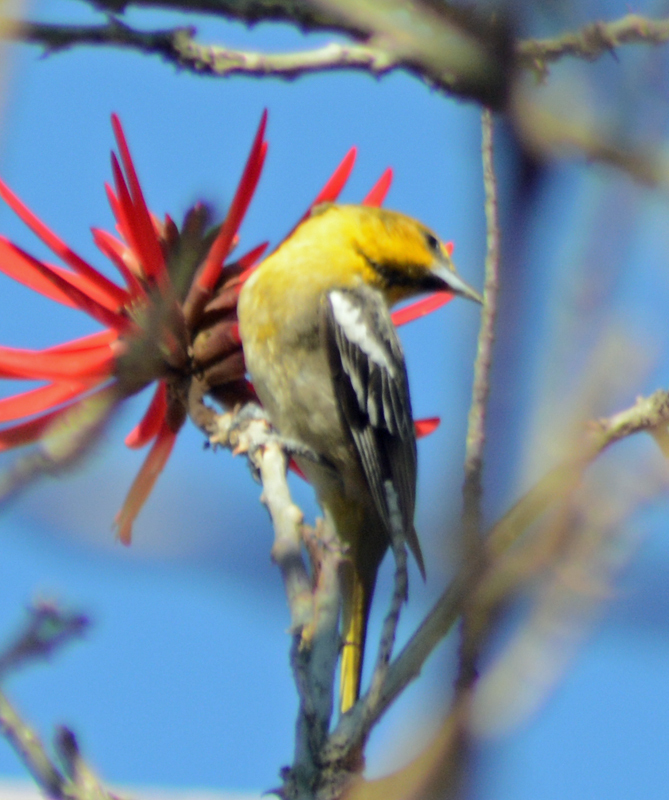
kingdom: Animalia
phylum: Chordata
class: Aves
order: Passeriformes
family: Icteridae
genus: Icterus
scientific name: Icterus abeillei
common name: Black-backed oriole
